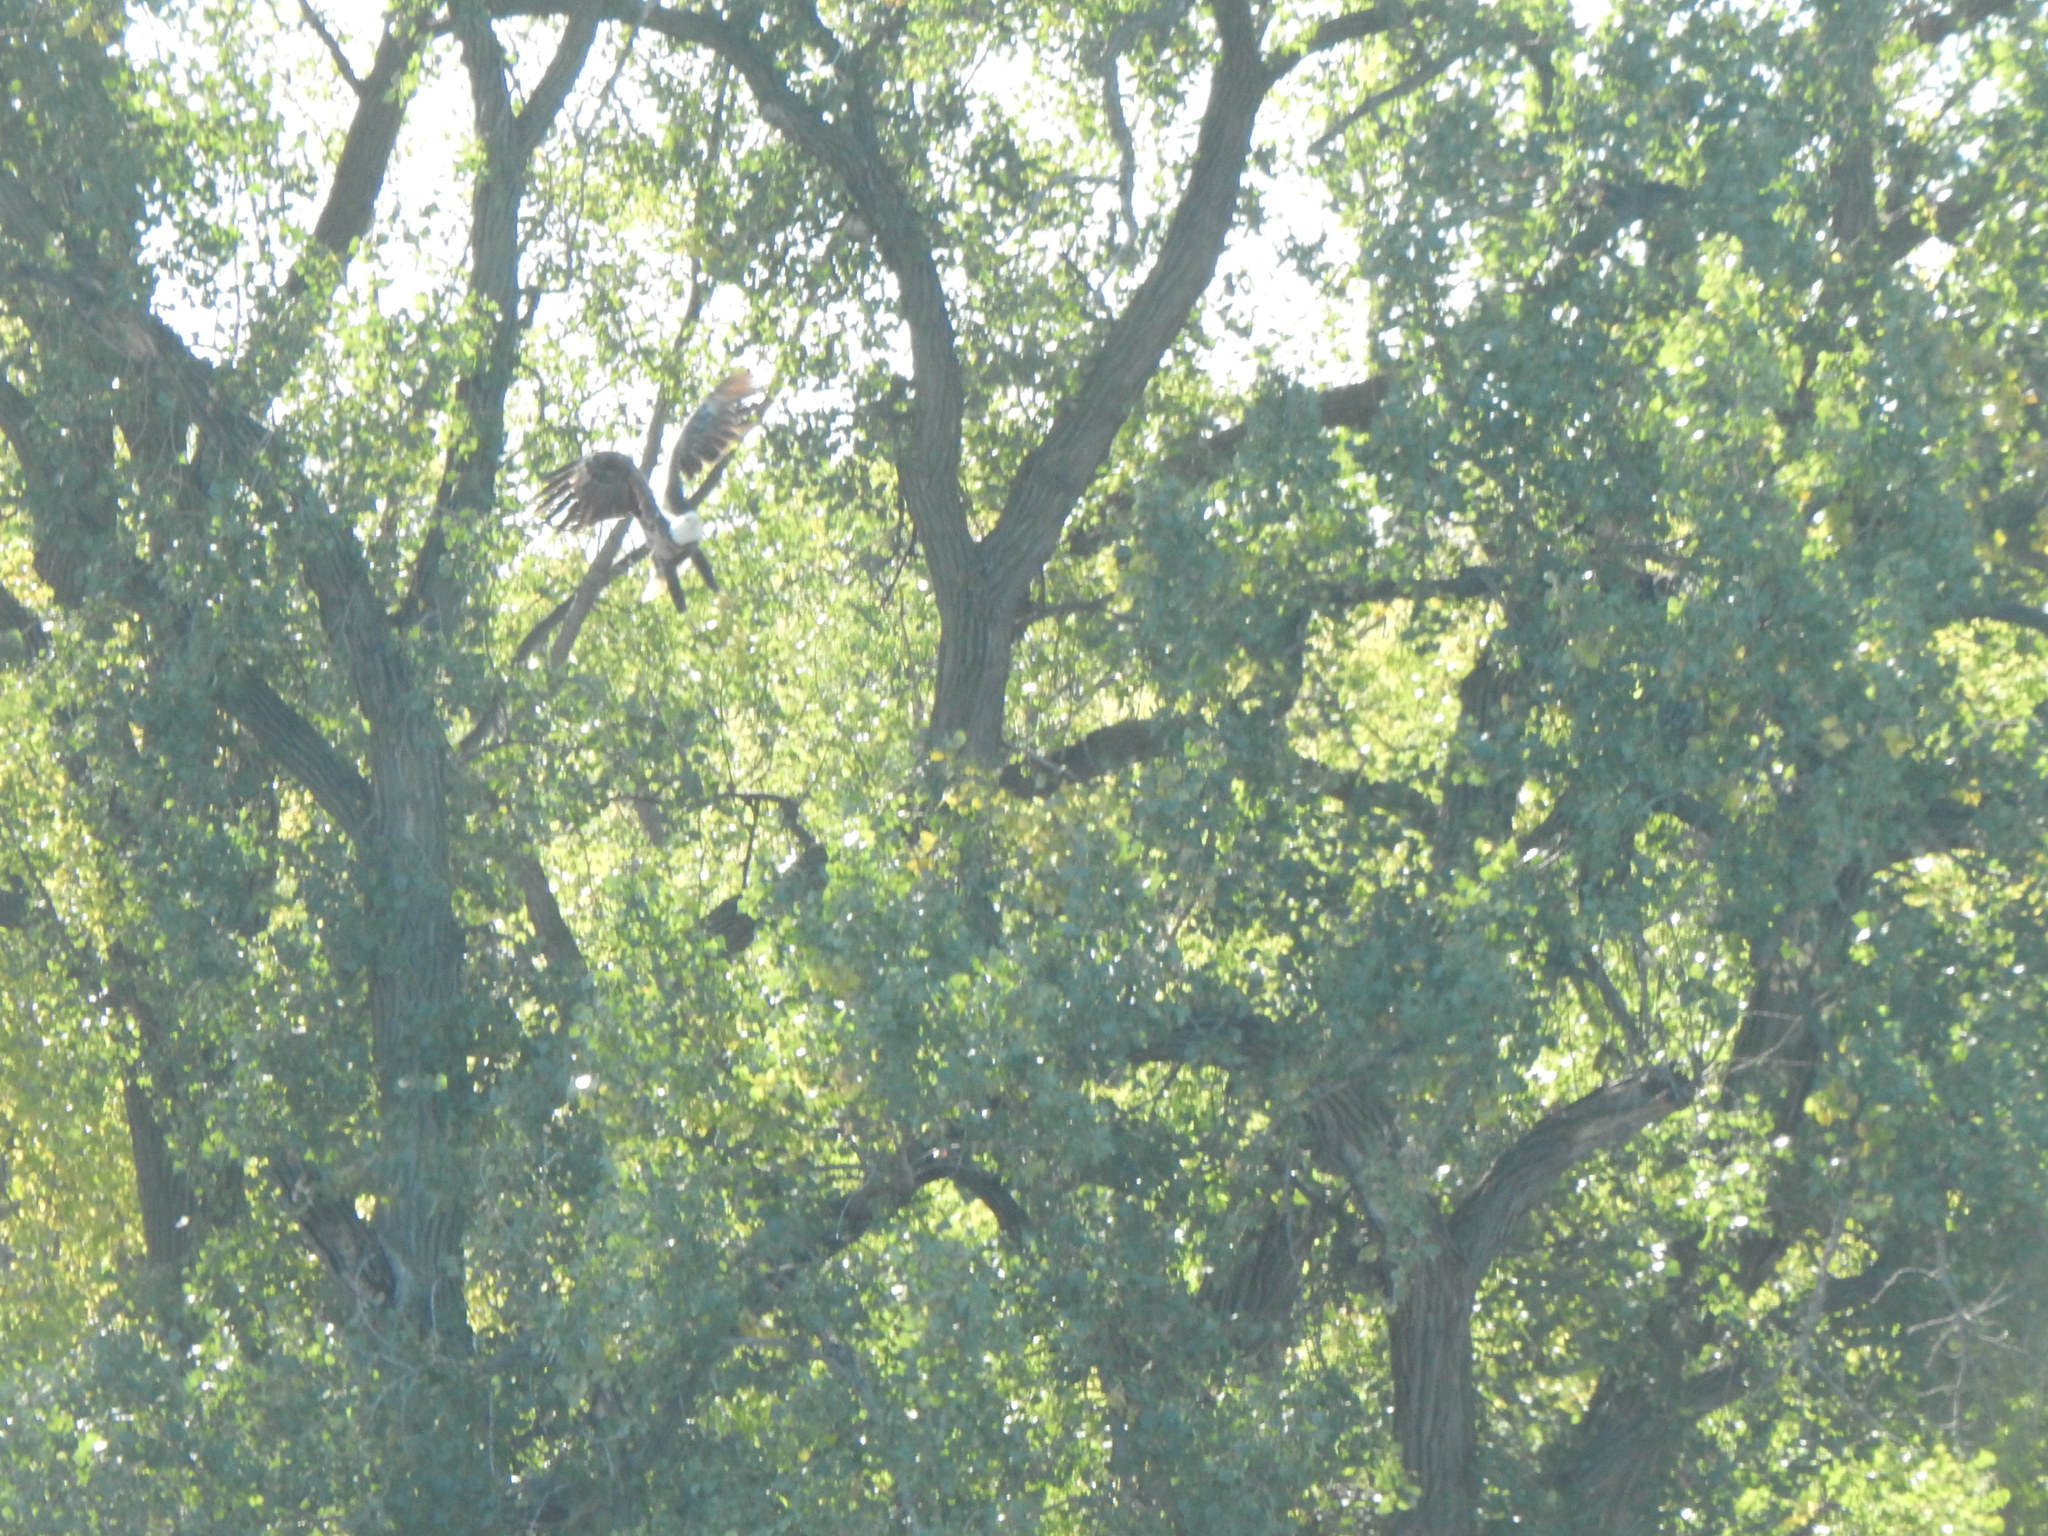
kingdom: Animalia
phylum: Chordata
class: Aves
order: Accipitriformes
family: Accipitridae
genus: Haliaeetus
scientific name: Haliaeetus leucocephalus
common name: Bald eagle
